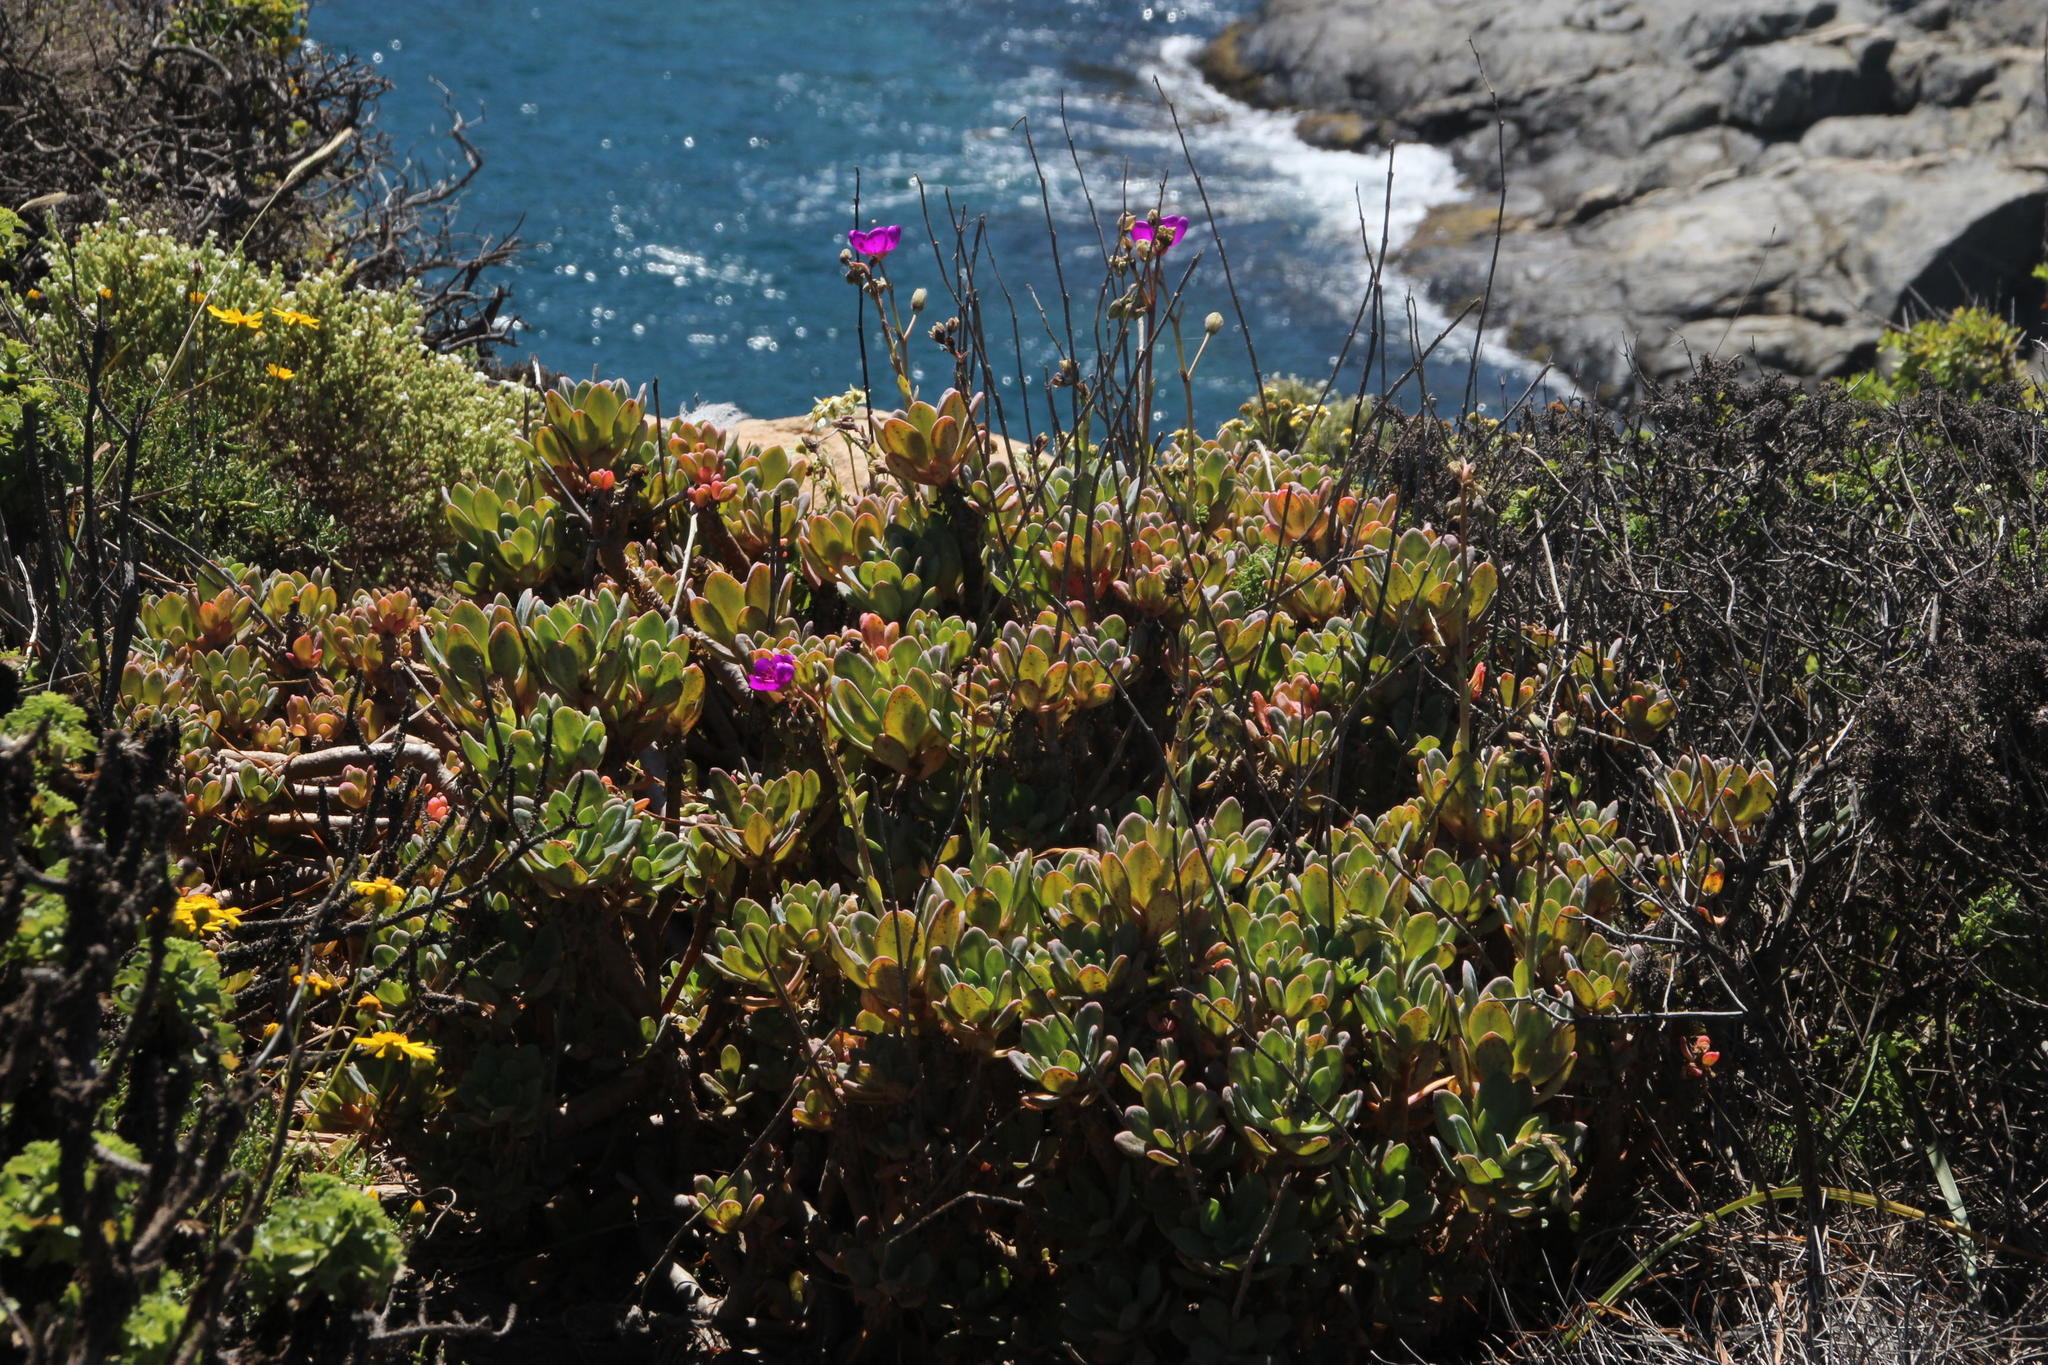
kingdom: Plantae
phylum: Tracheophyta
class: Magnoliopsida
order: Caryophyllales
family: Montiaceae
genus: Cistanthe
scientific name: Cistanthe grandiflora
